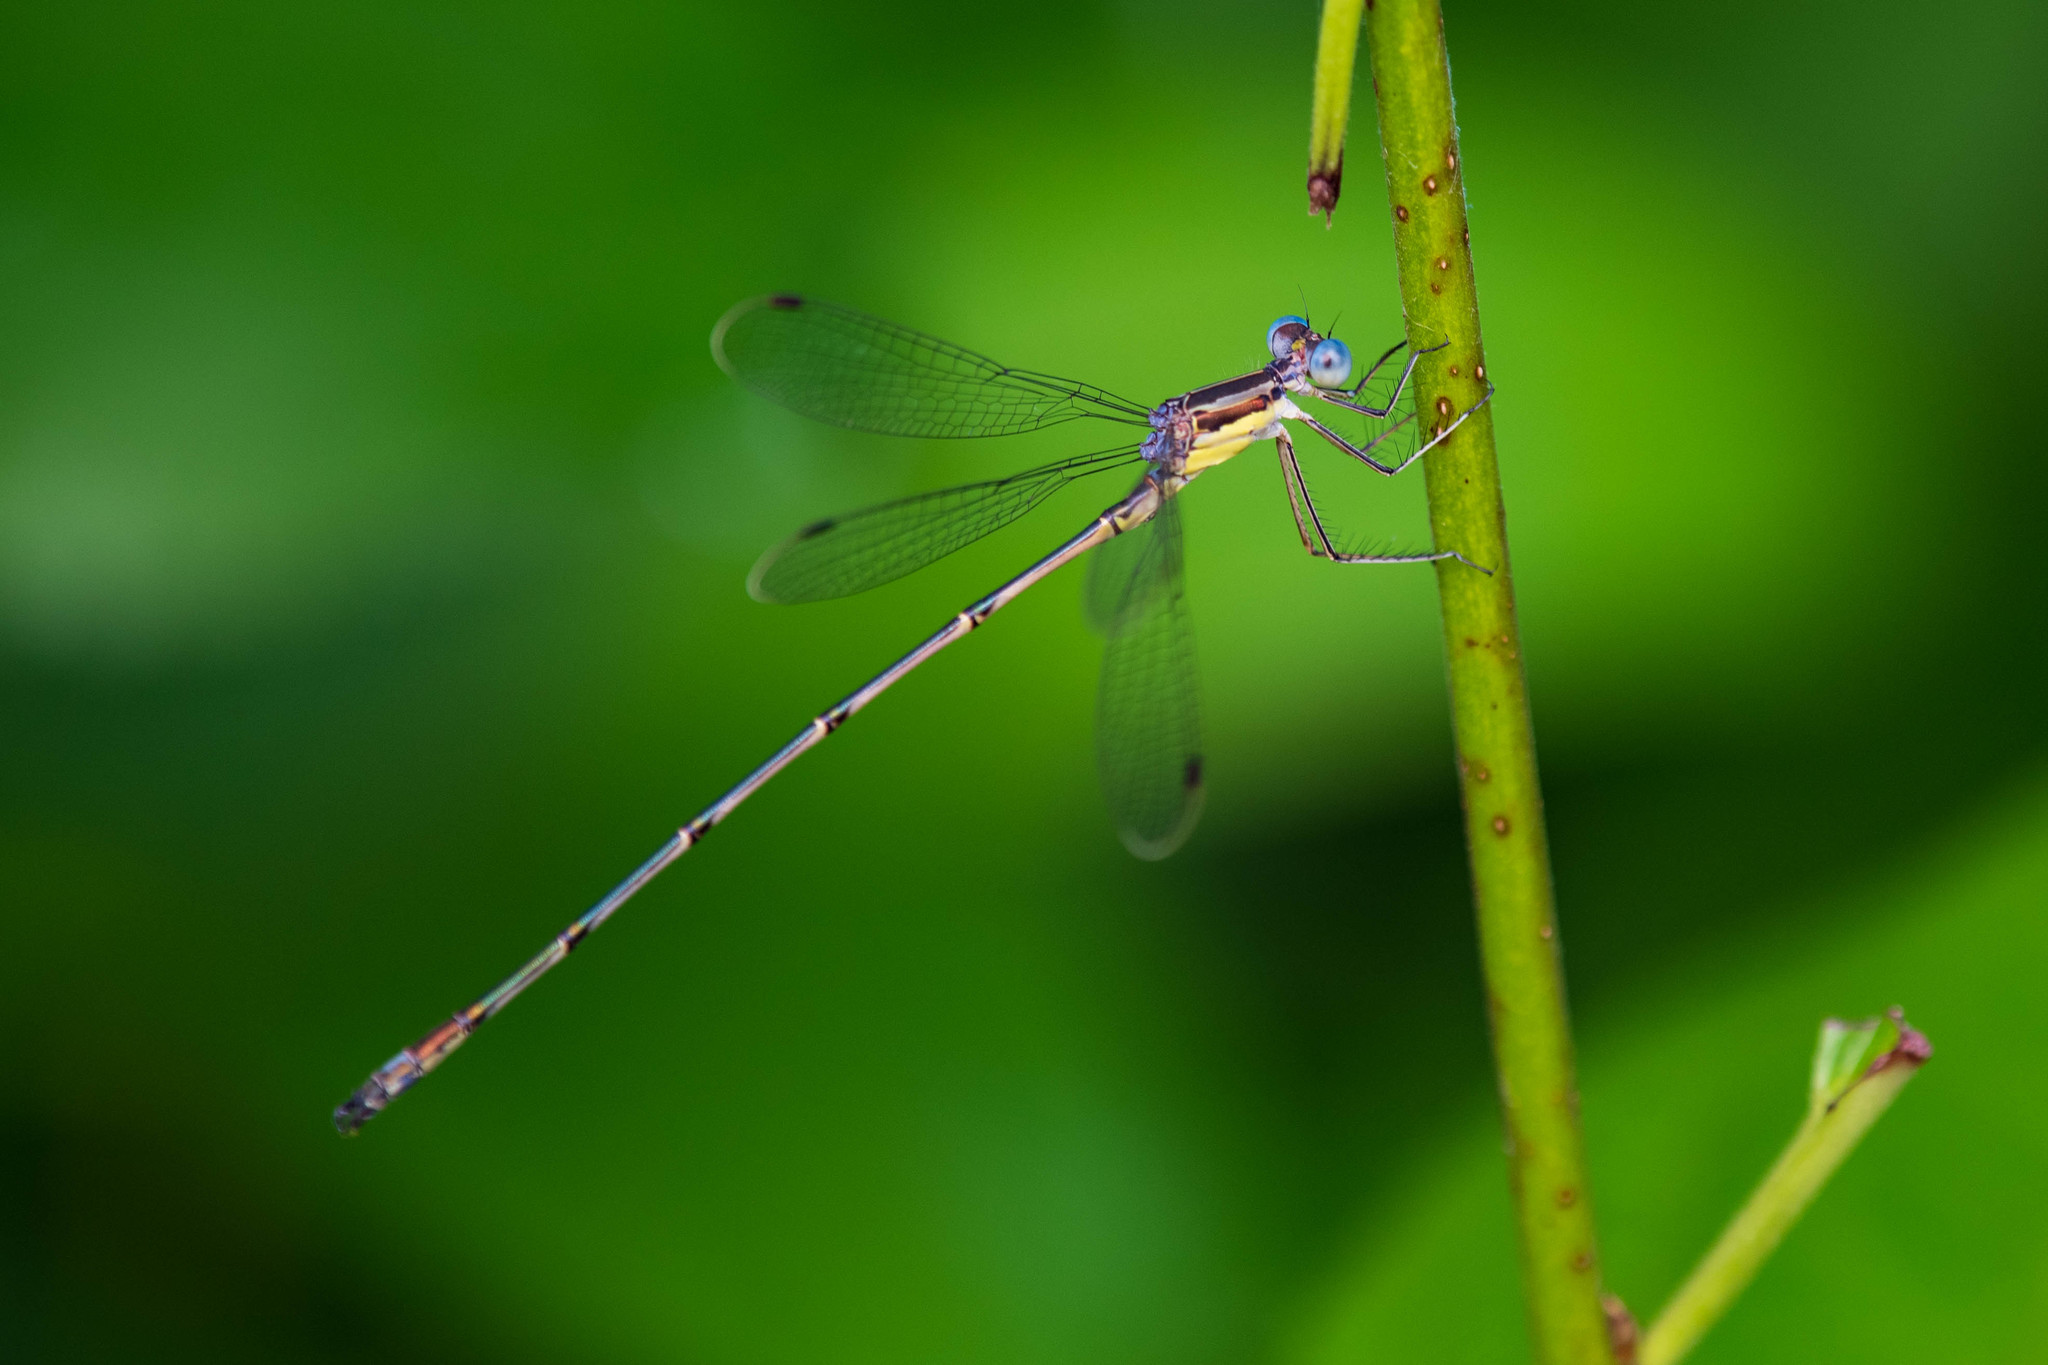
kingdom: Animalia
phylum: Arthropoda
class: Insecta
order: Odonata
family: Lestidae
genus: Lestes
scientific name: Lestes rectangularis
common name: Slender spreadwing
